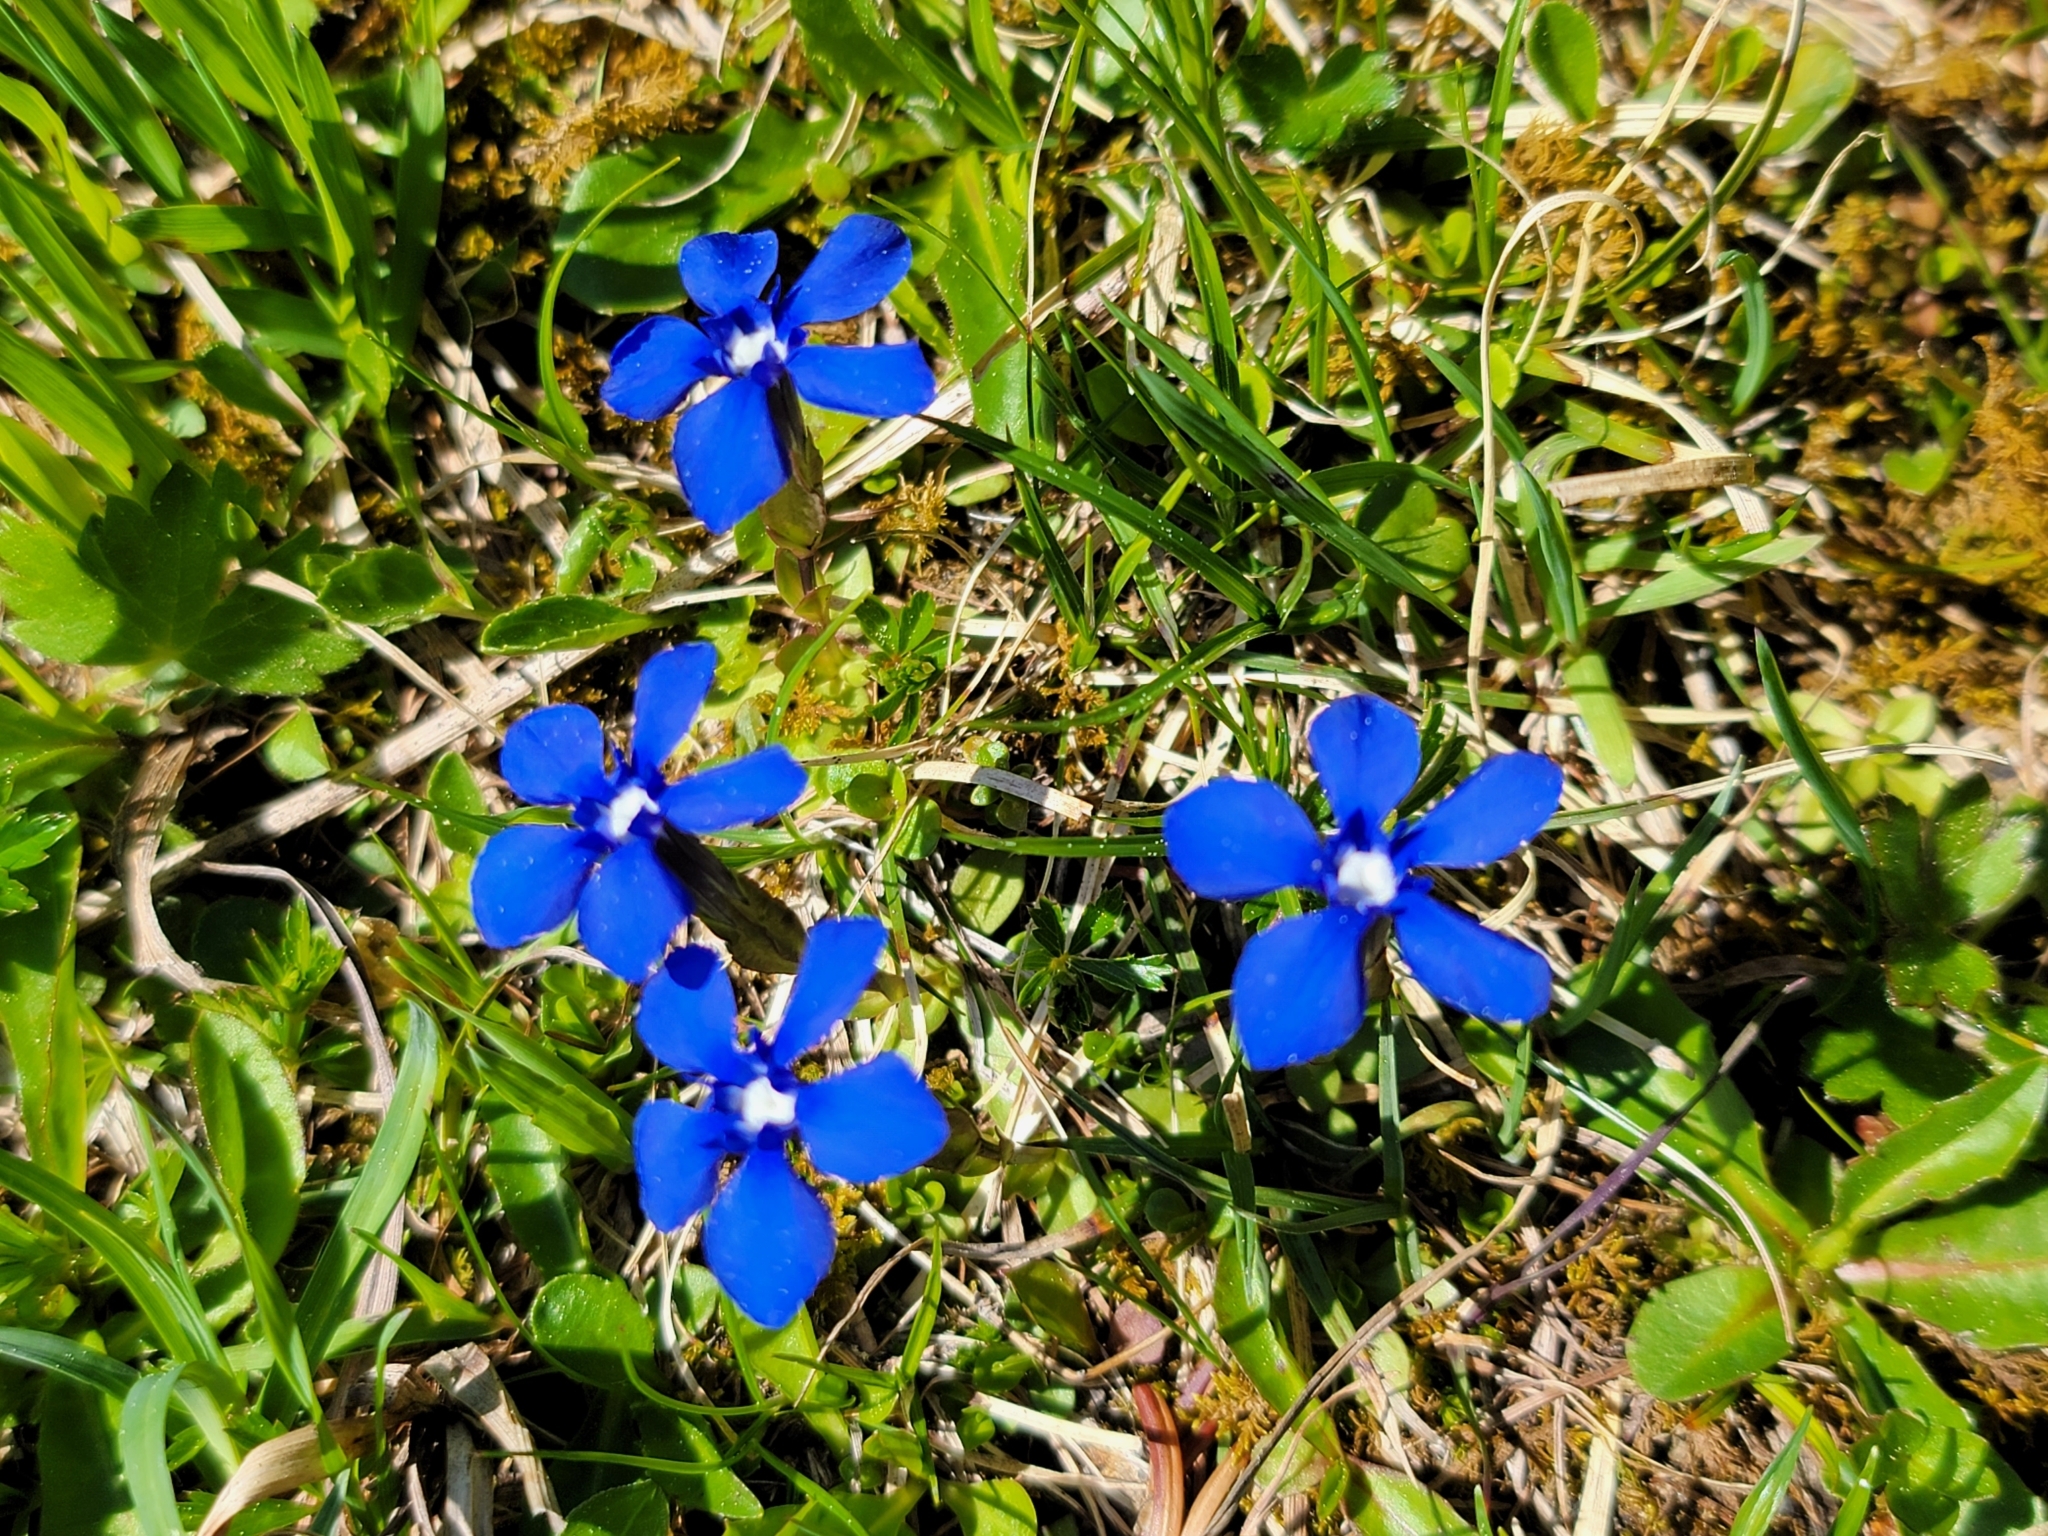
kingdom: Plantae
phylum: Tracheophyta
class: Magnoliopsida
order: Gentianales
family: Gentianaceae
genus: Gentiana
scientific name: Gentiana verna
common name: Spring gentian
